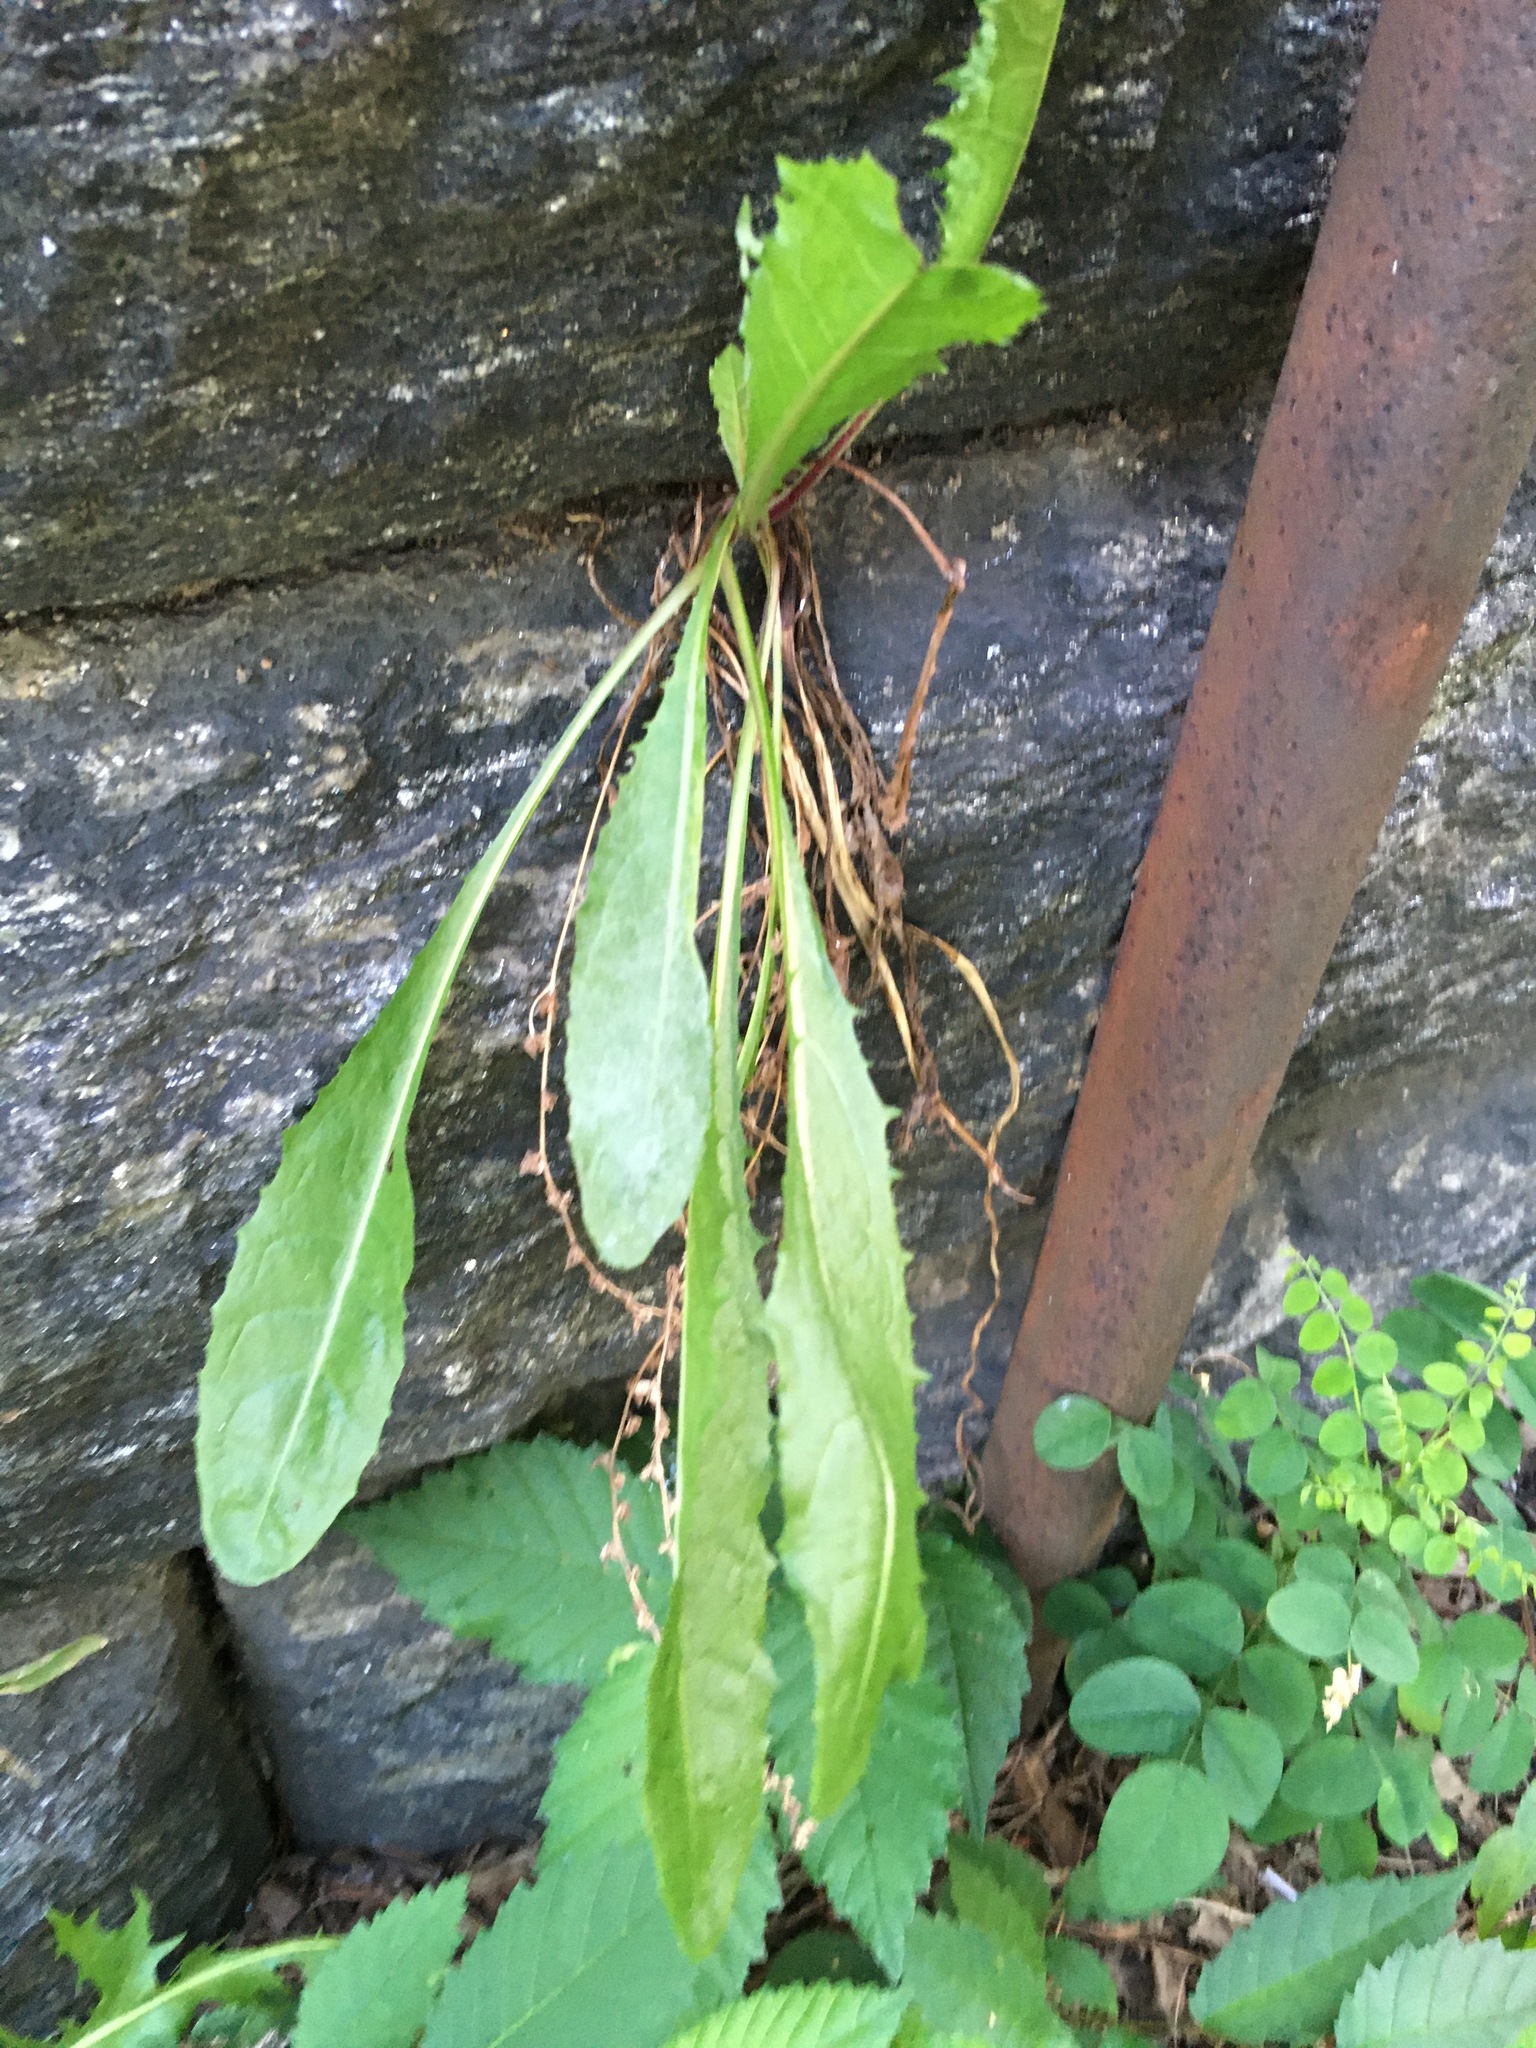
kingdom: Plantae
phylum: Tracheophyta
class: Magnoliopsida
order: Asterales
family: Asteraceae
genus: Taraxacum
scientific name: Taraxacum officinale
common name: Common dandelion
